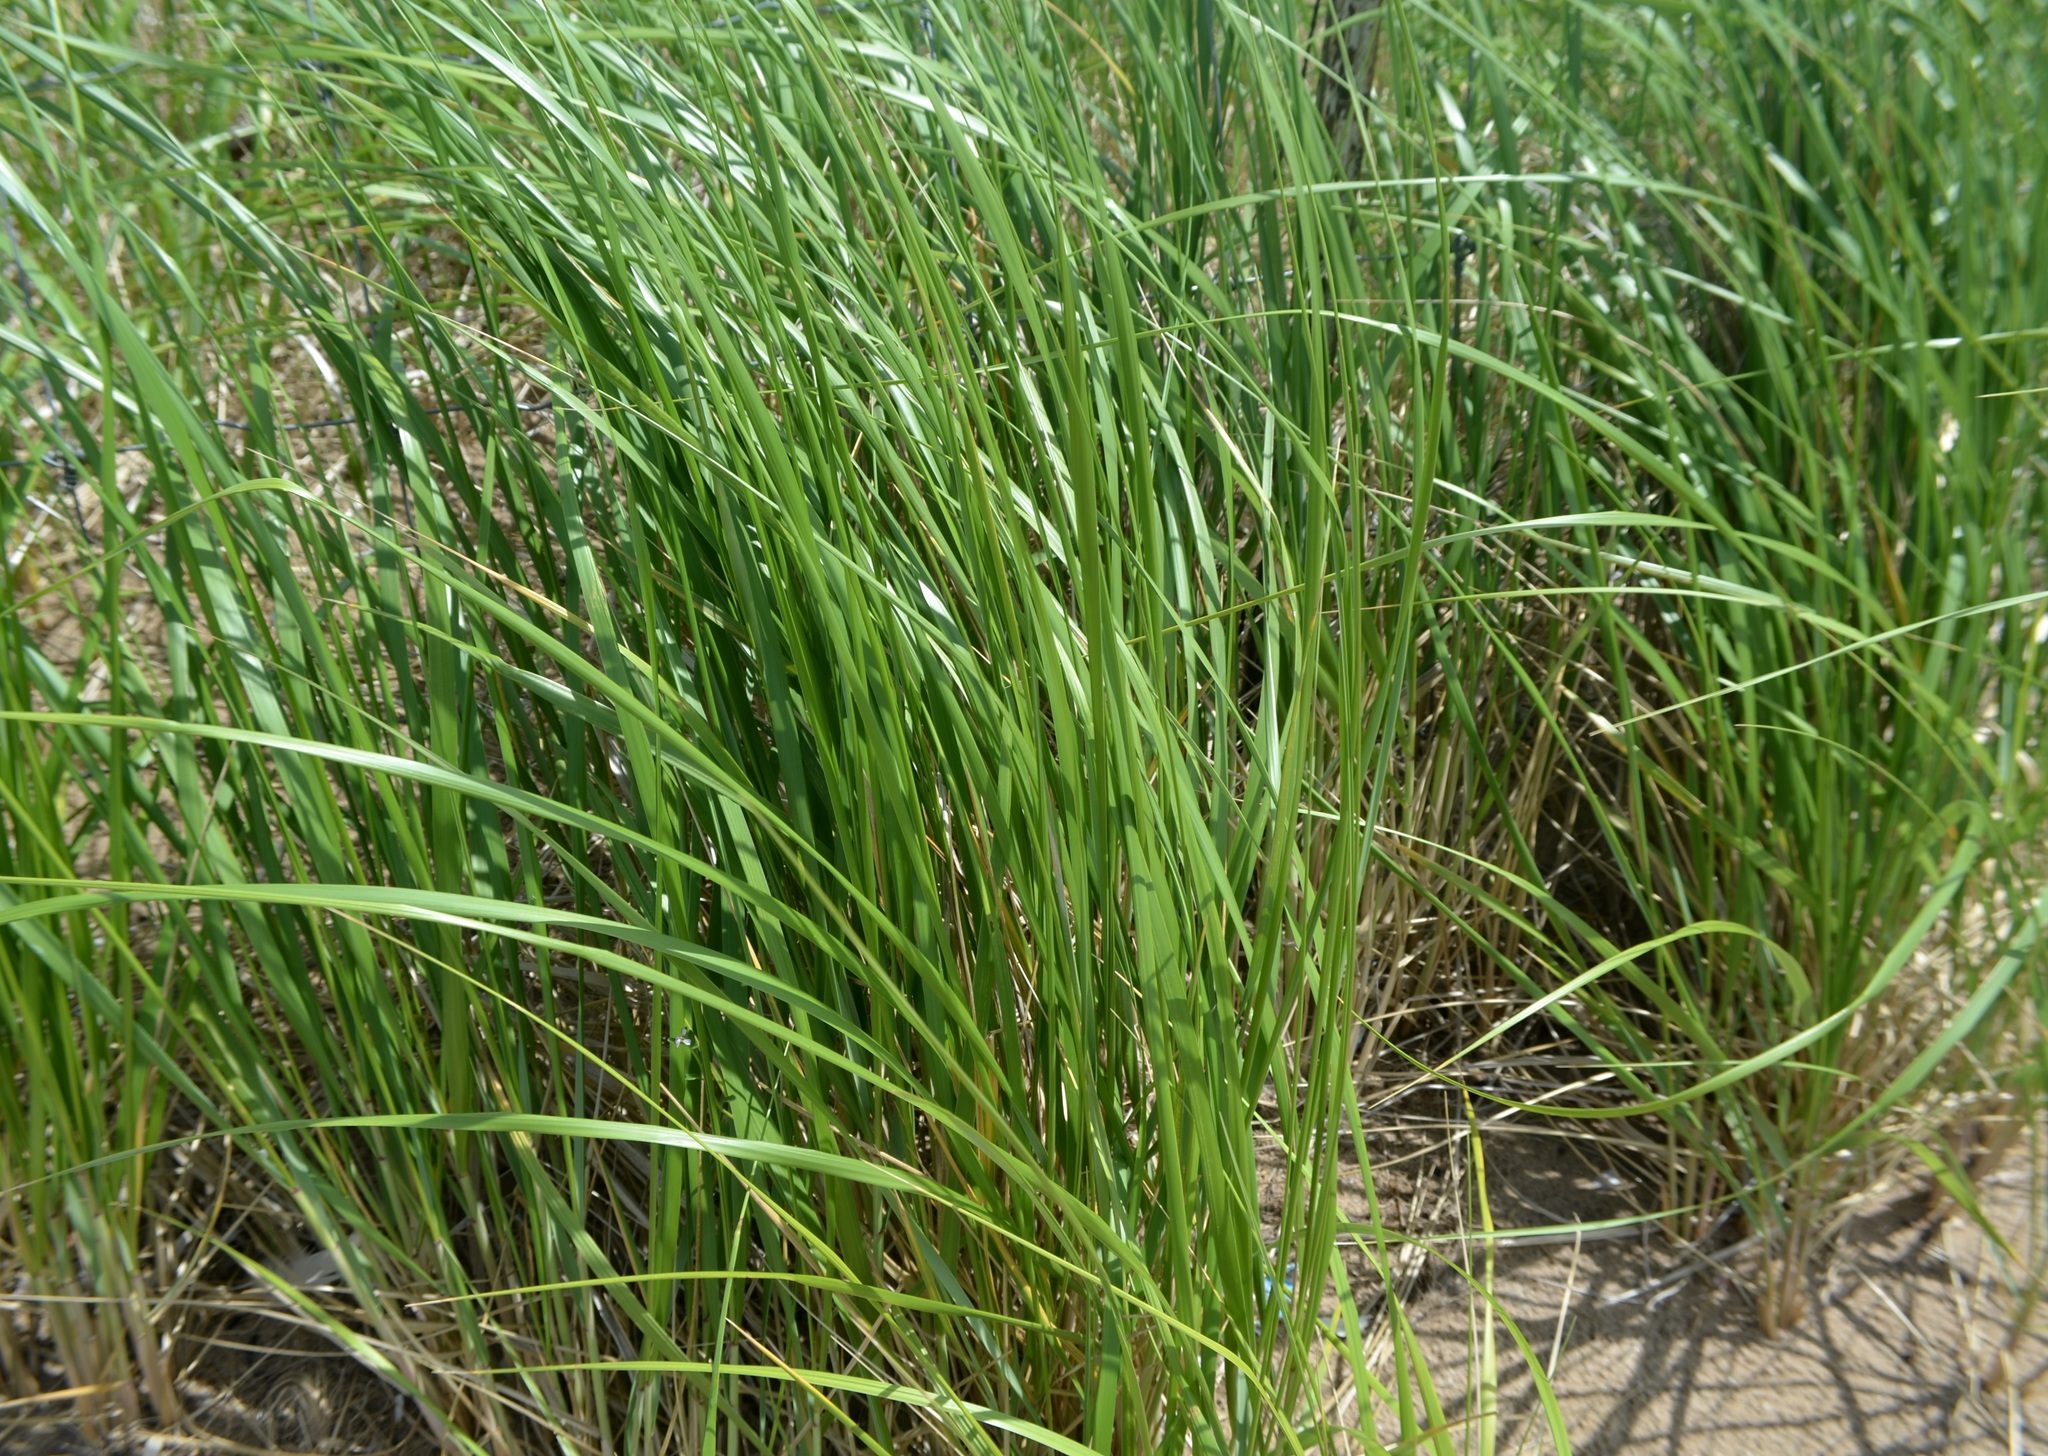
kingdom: Plantae
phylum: Tracheophyta
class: Liliopsida
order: Poales
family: Poaceae
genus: Calamagrostis
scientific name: Calamagrostis breviligulata
